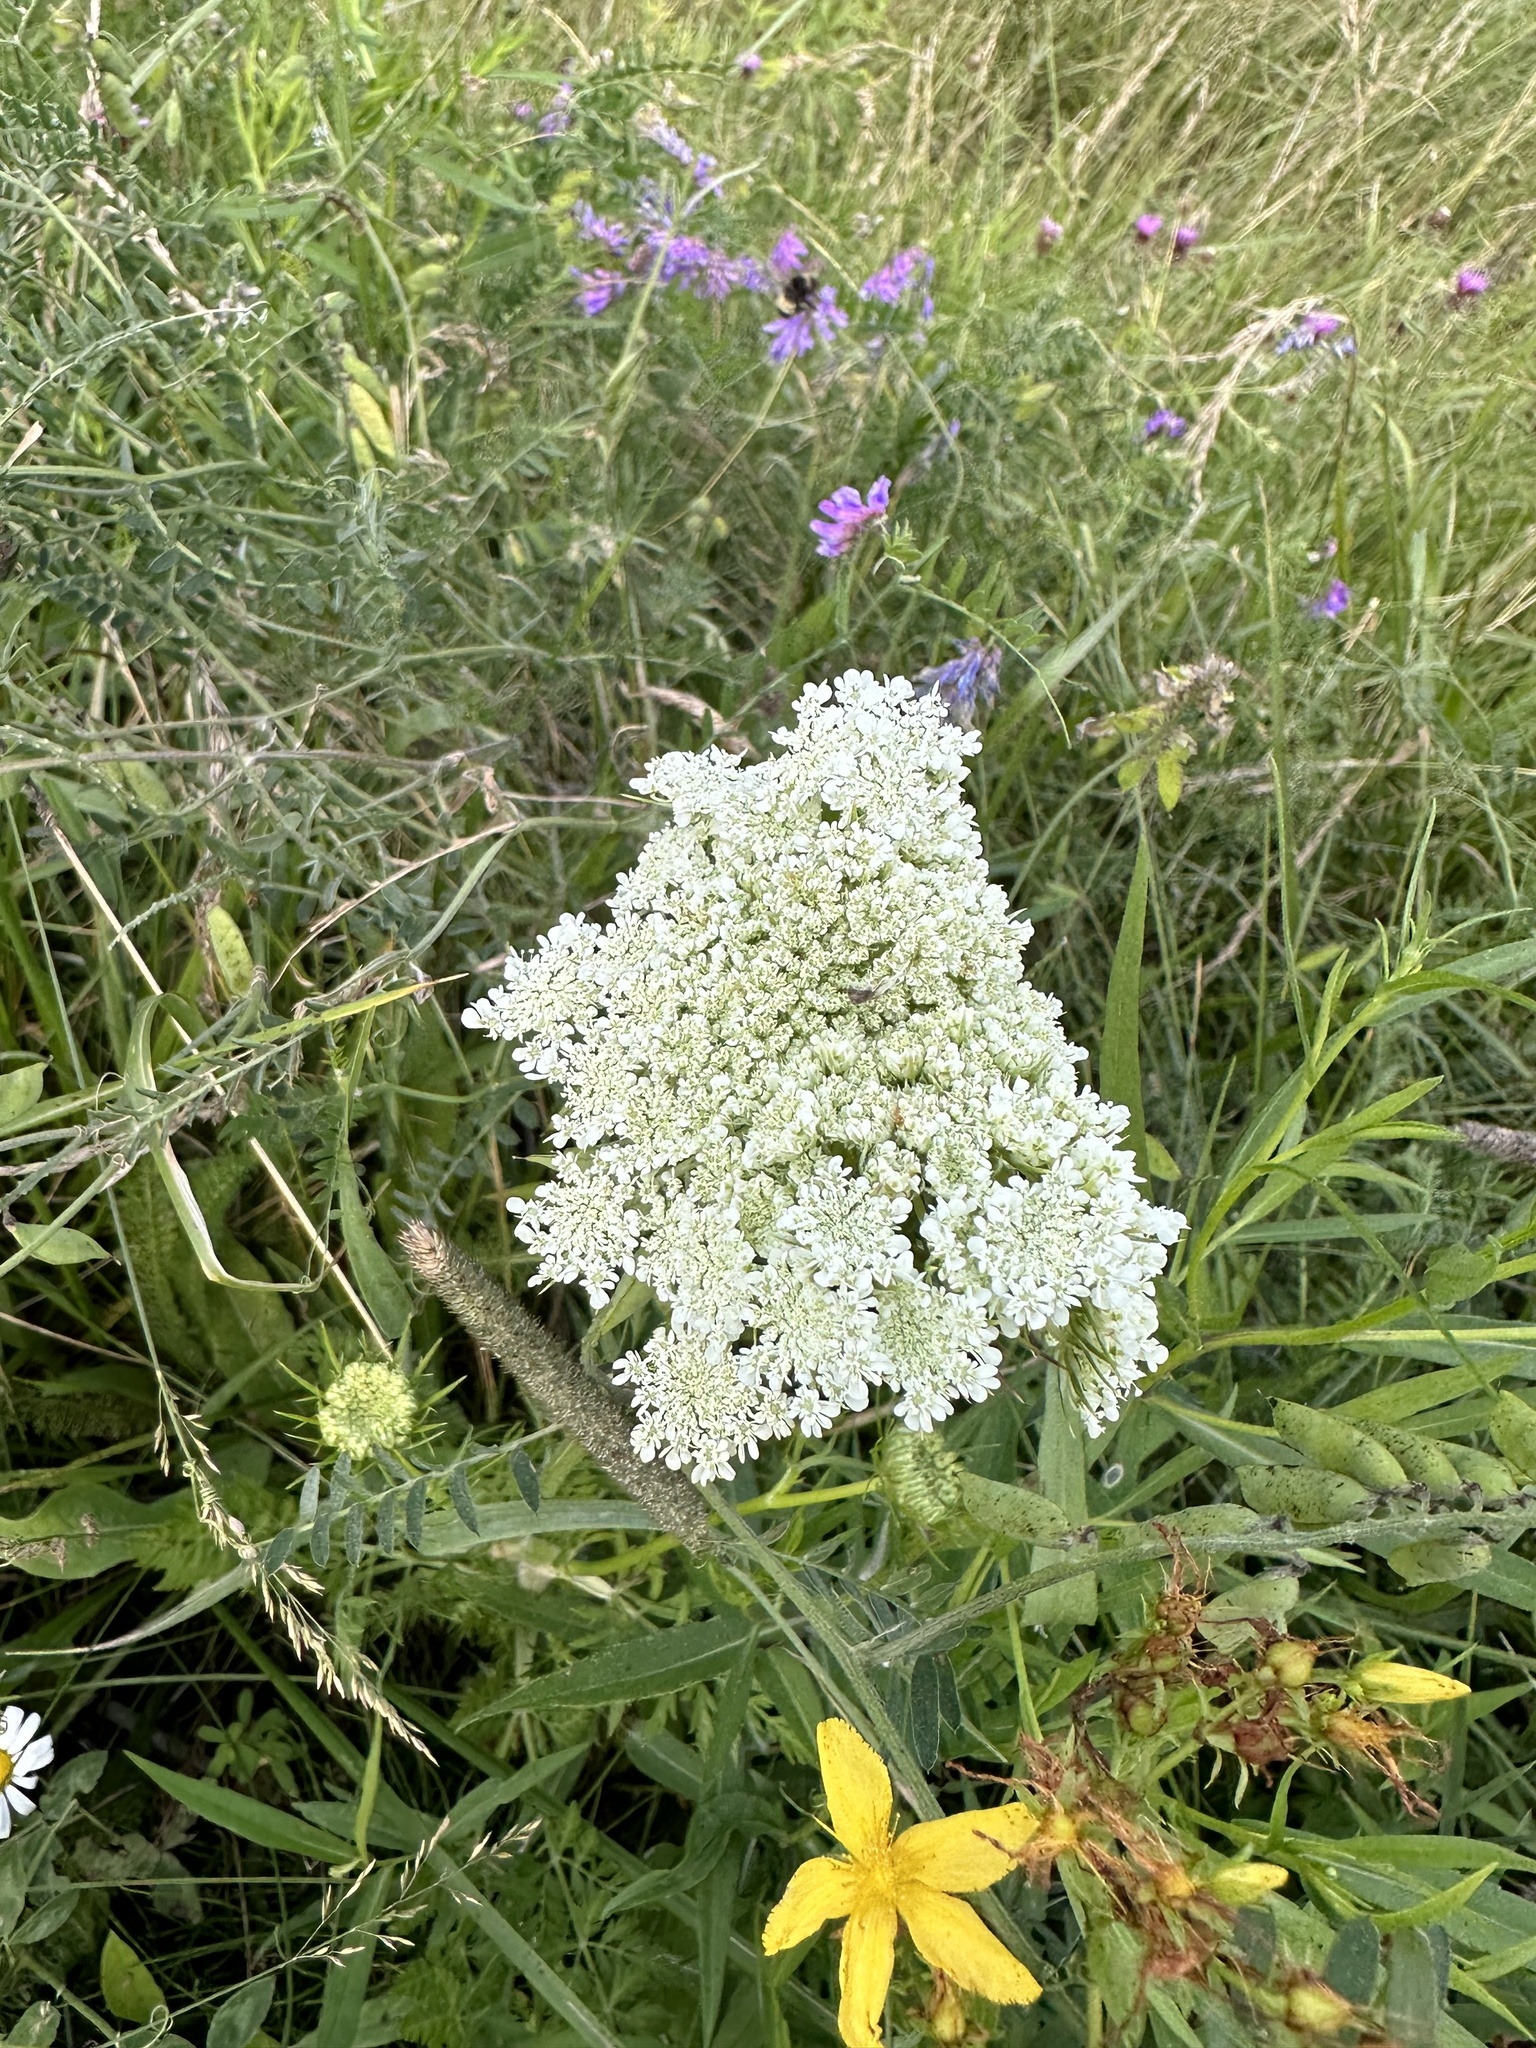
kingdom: Plantae
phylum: Tracheophyta
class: Magnoliopsida
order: Apiales
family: Apiaceae
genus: Daucus
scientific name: Daucus carota
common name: Wild carrot
